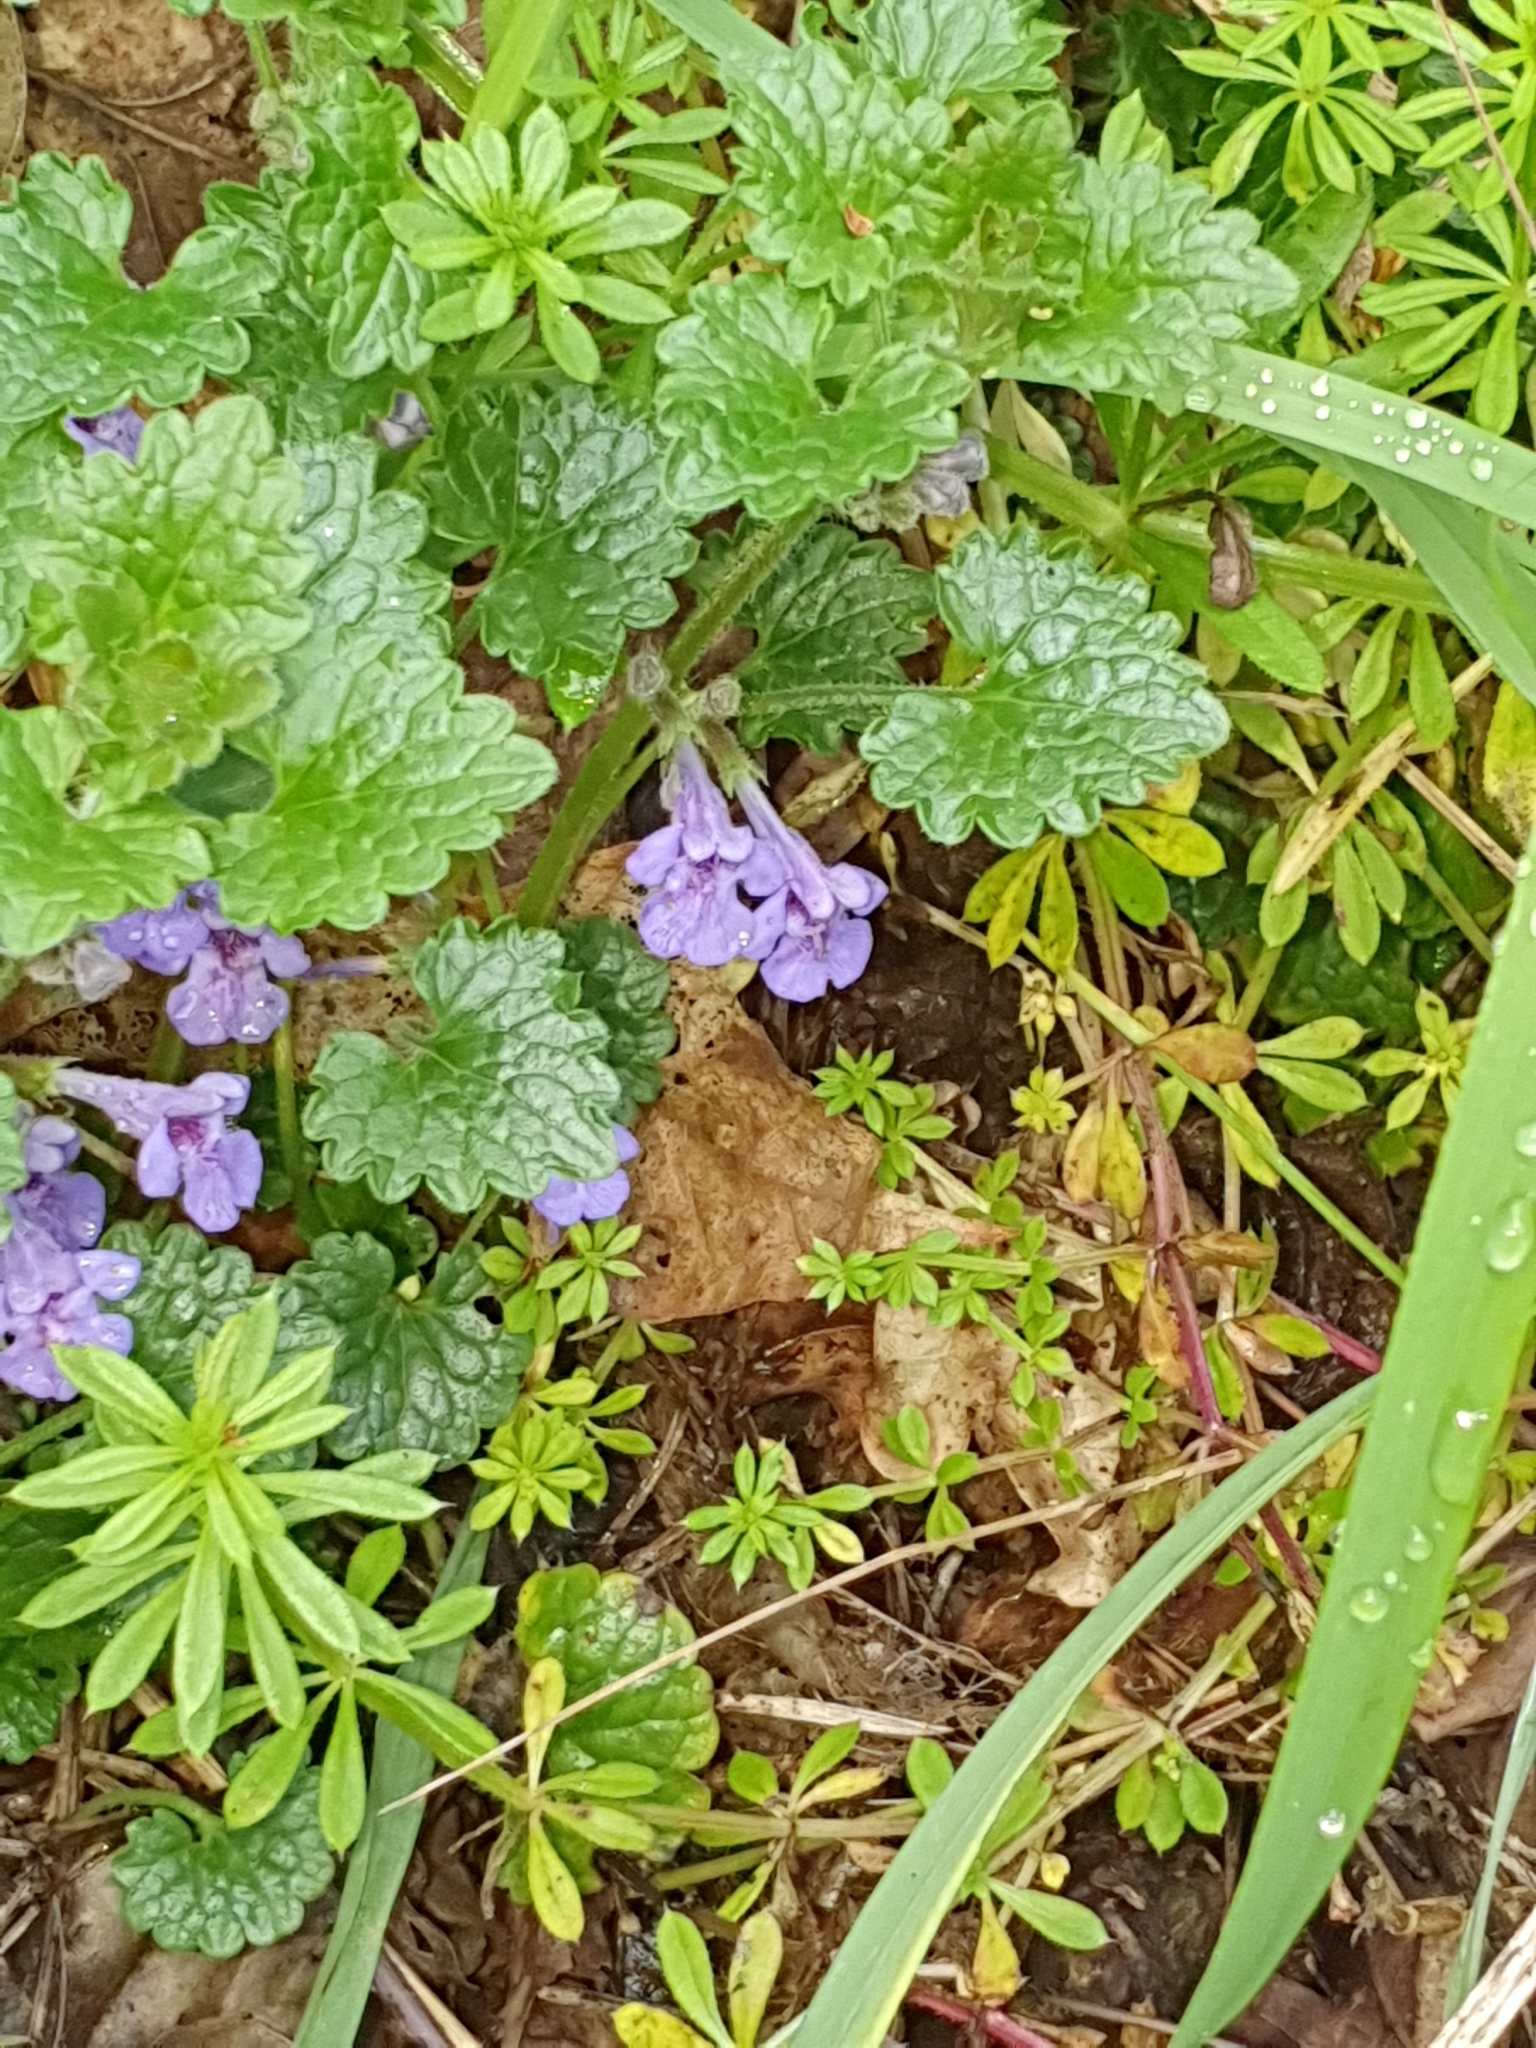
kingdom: Plantae
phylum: Tracheophyta
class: Magnoliopsida
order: Lamiales
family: Lamiaceae
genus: Glechoma
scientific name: Glechoma hederacea
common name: Ground ivy
